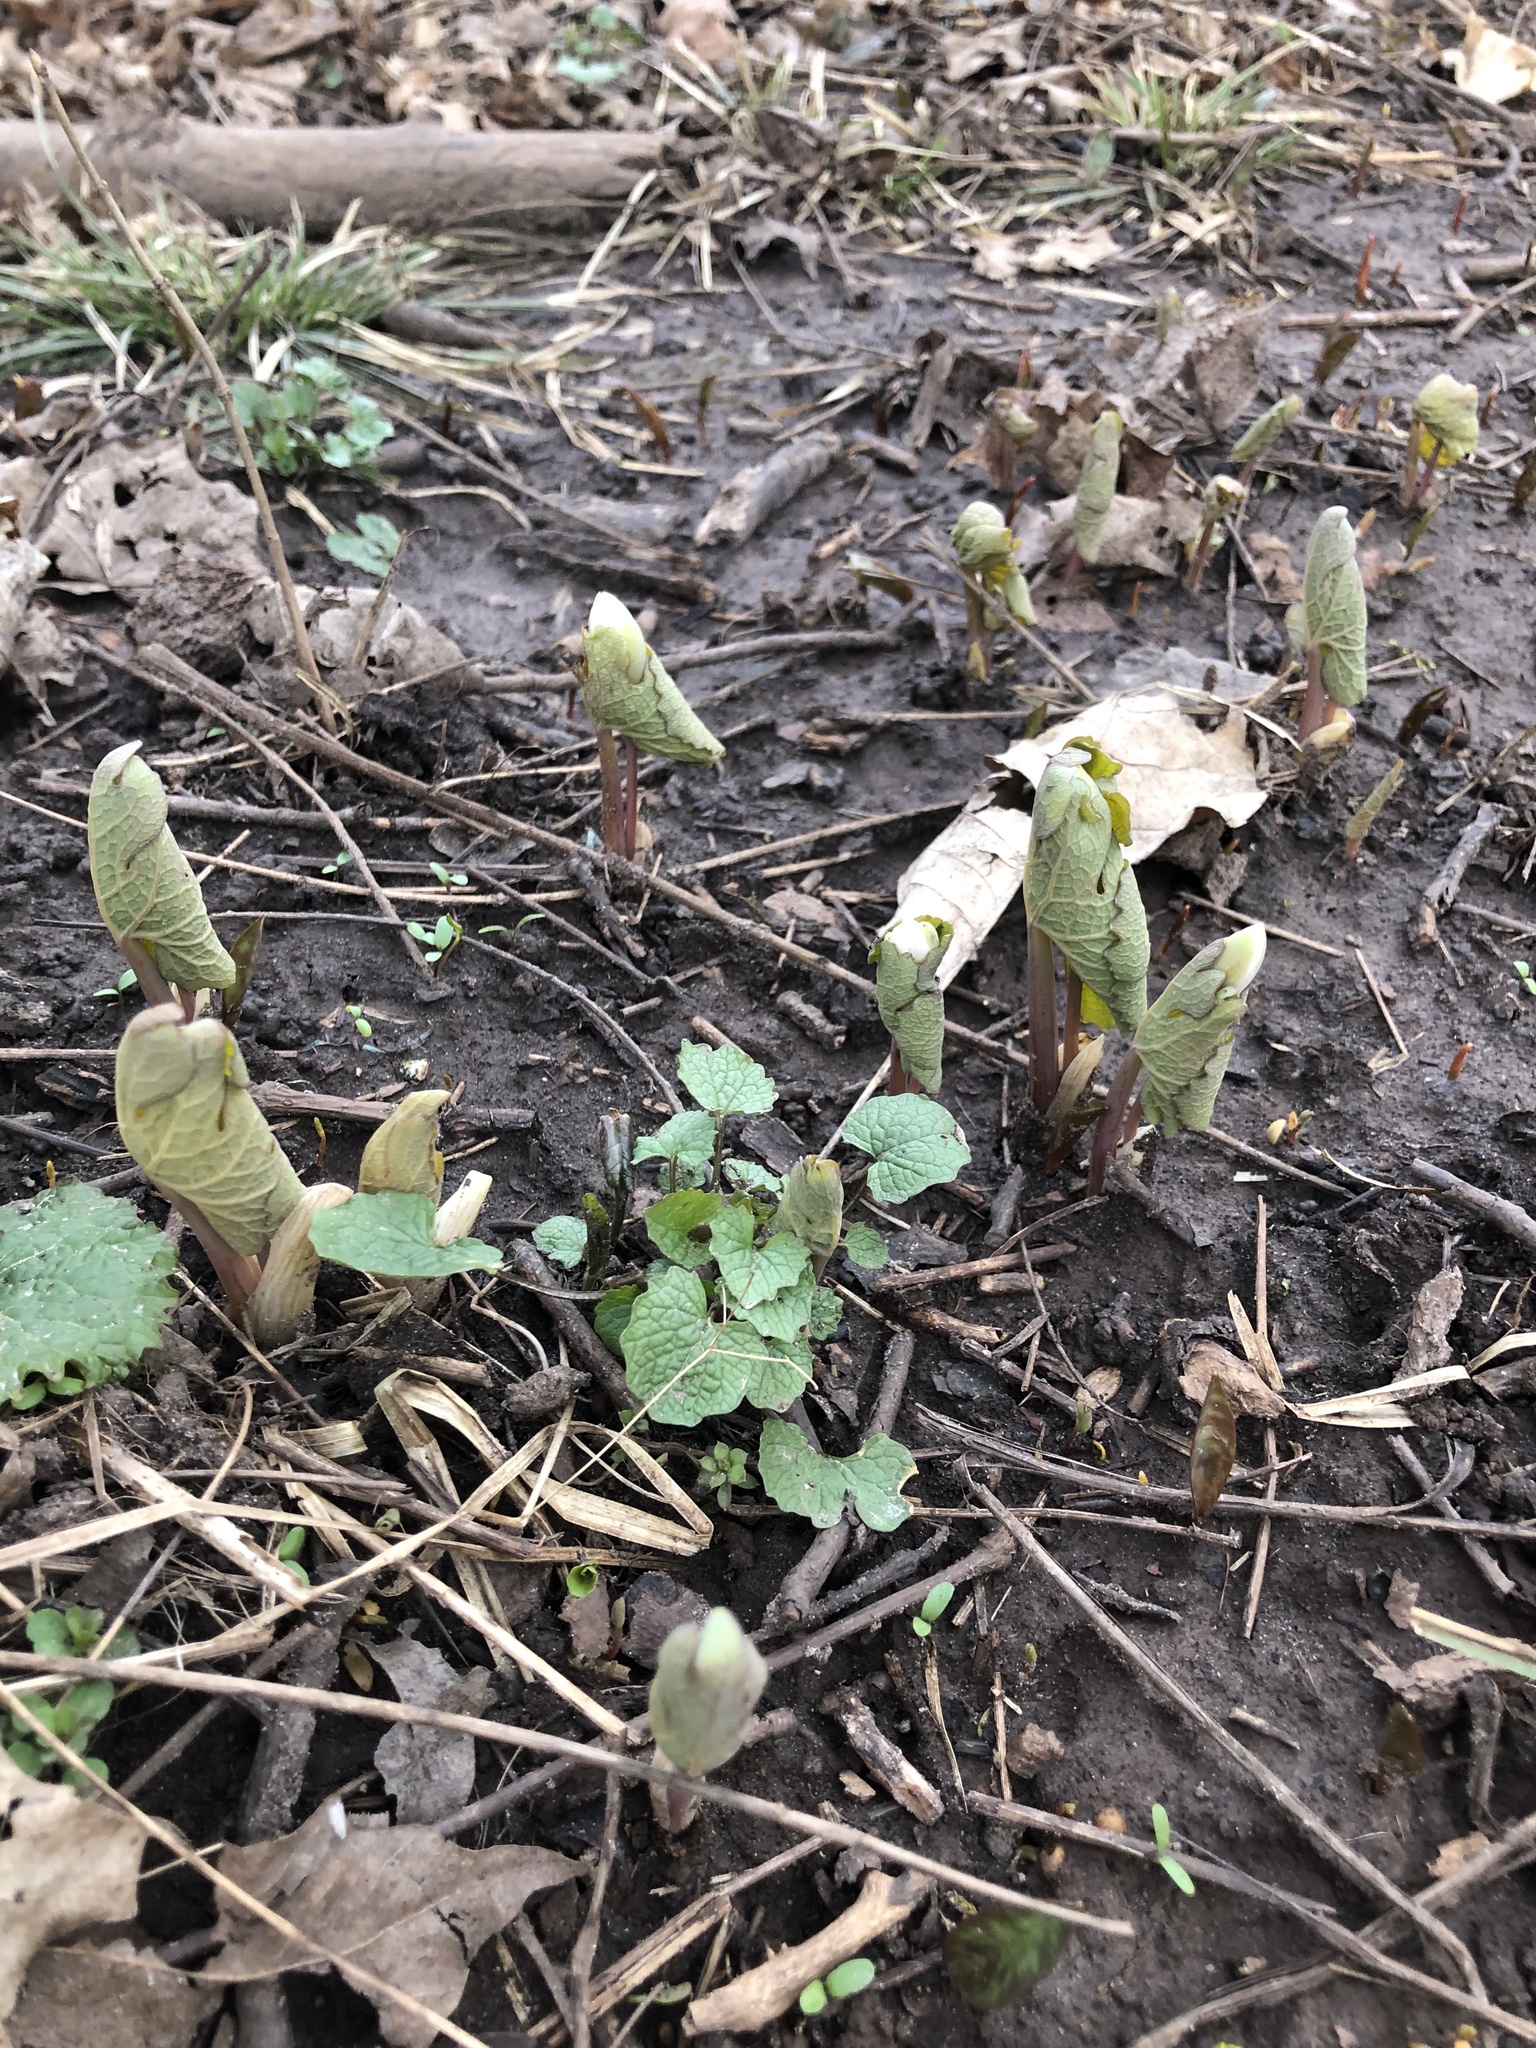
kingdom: Plantae
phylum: Tracheophyta
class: Magnoliopsida
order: Ranunculales
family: Papaveraceae
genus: Sanguinaria
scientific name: Sanguinaria canadensis
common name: Bloodroot
